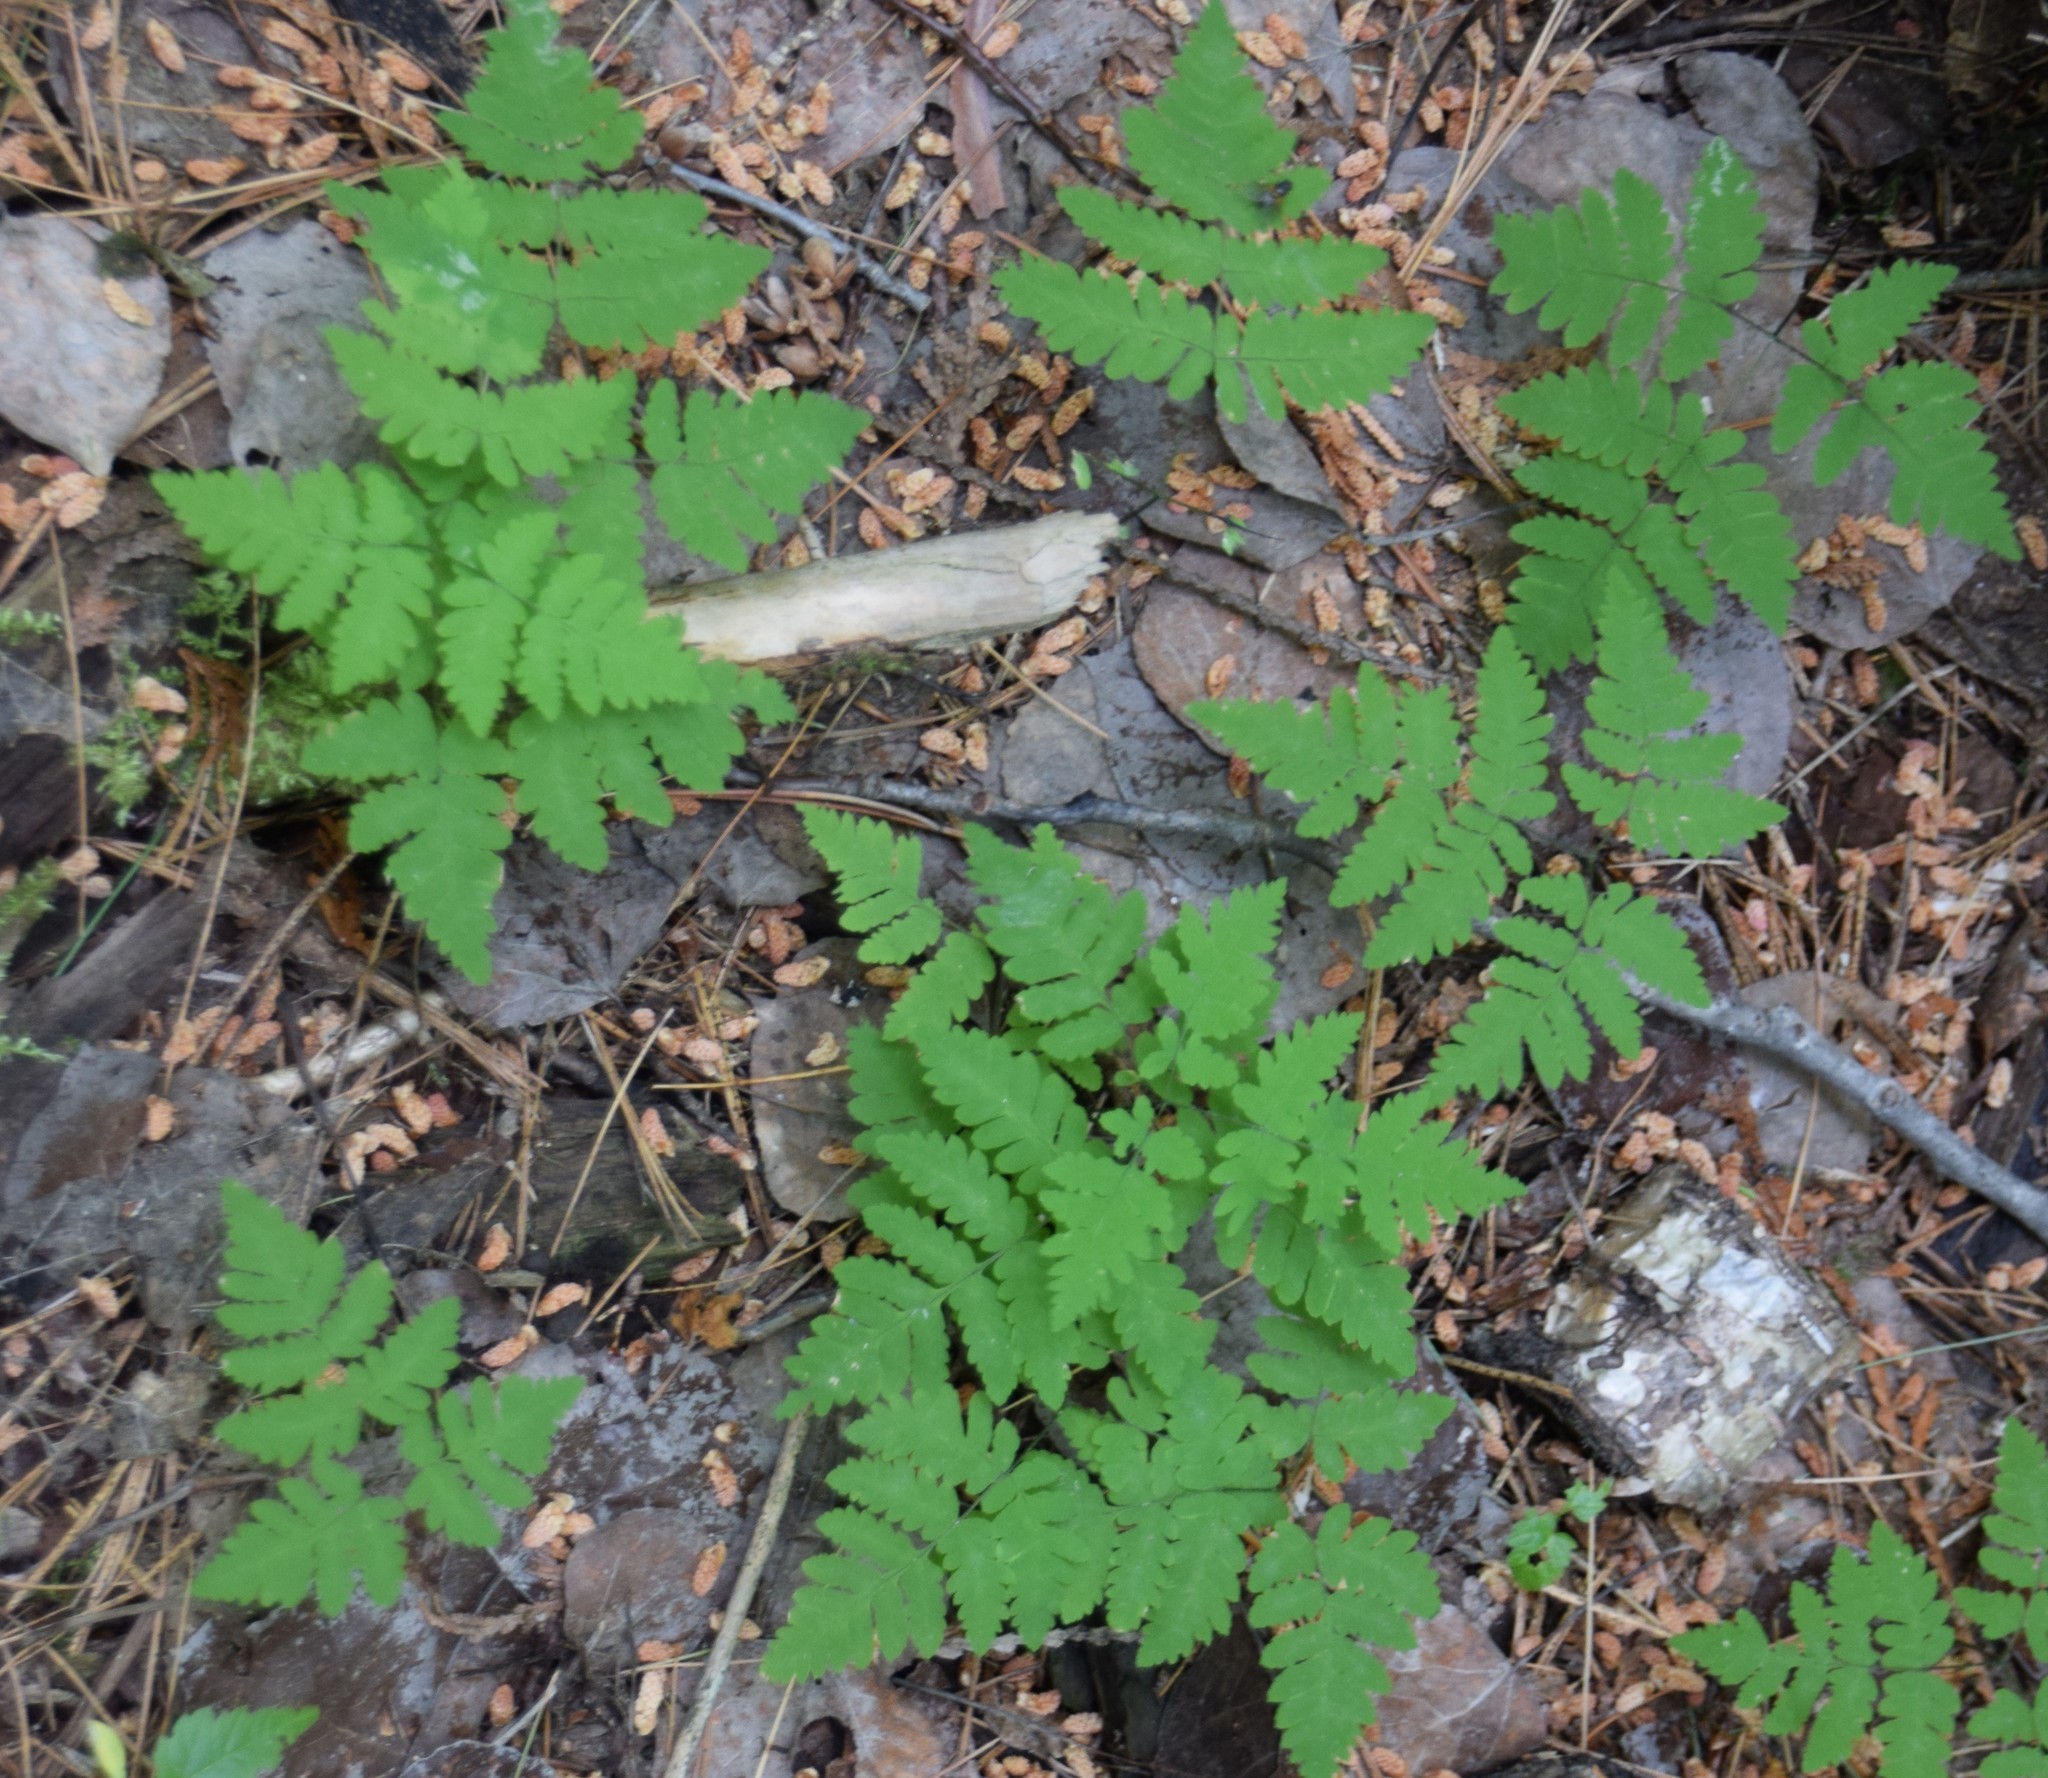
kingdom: Plantae
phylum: Tracheophyta
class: Polypodiopsida
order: Polypodiales
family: Cystopteridaceae
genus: Gymnocarpium
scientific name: Gymnocarpium dryopteris
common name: Oak fern
